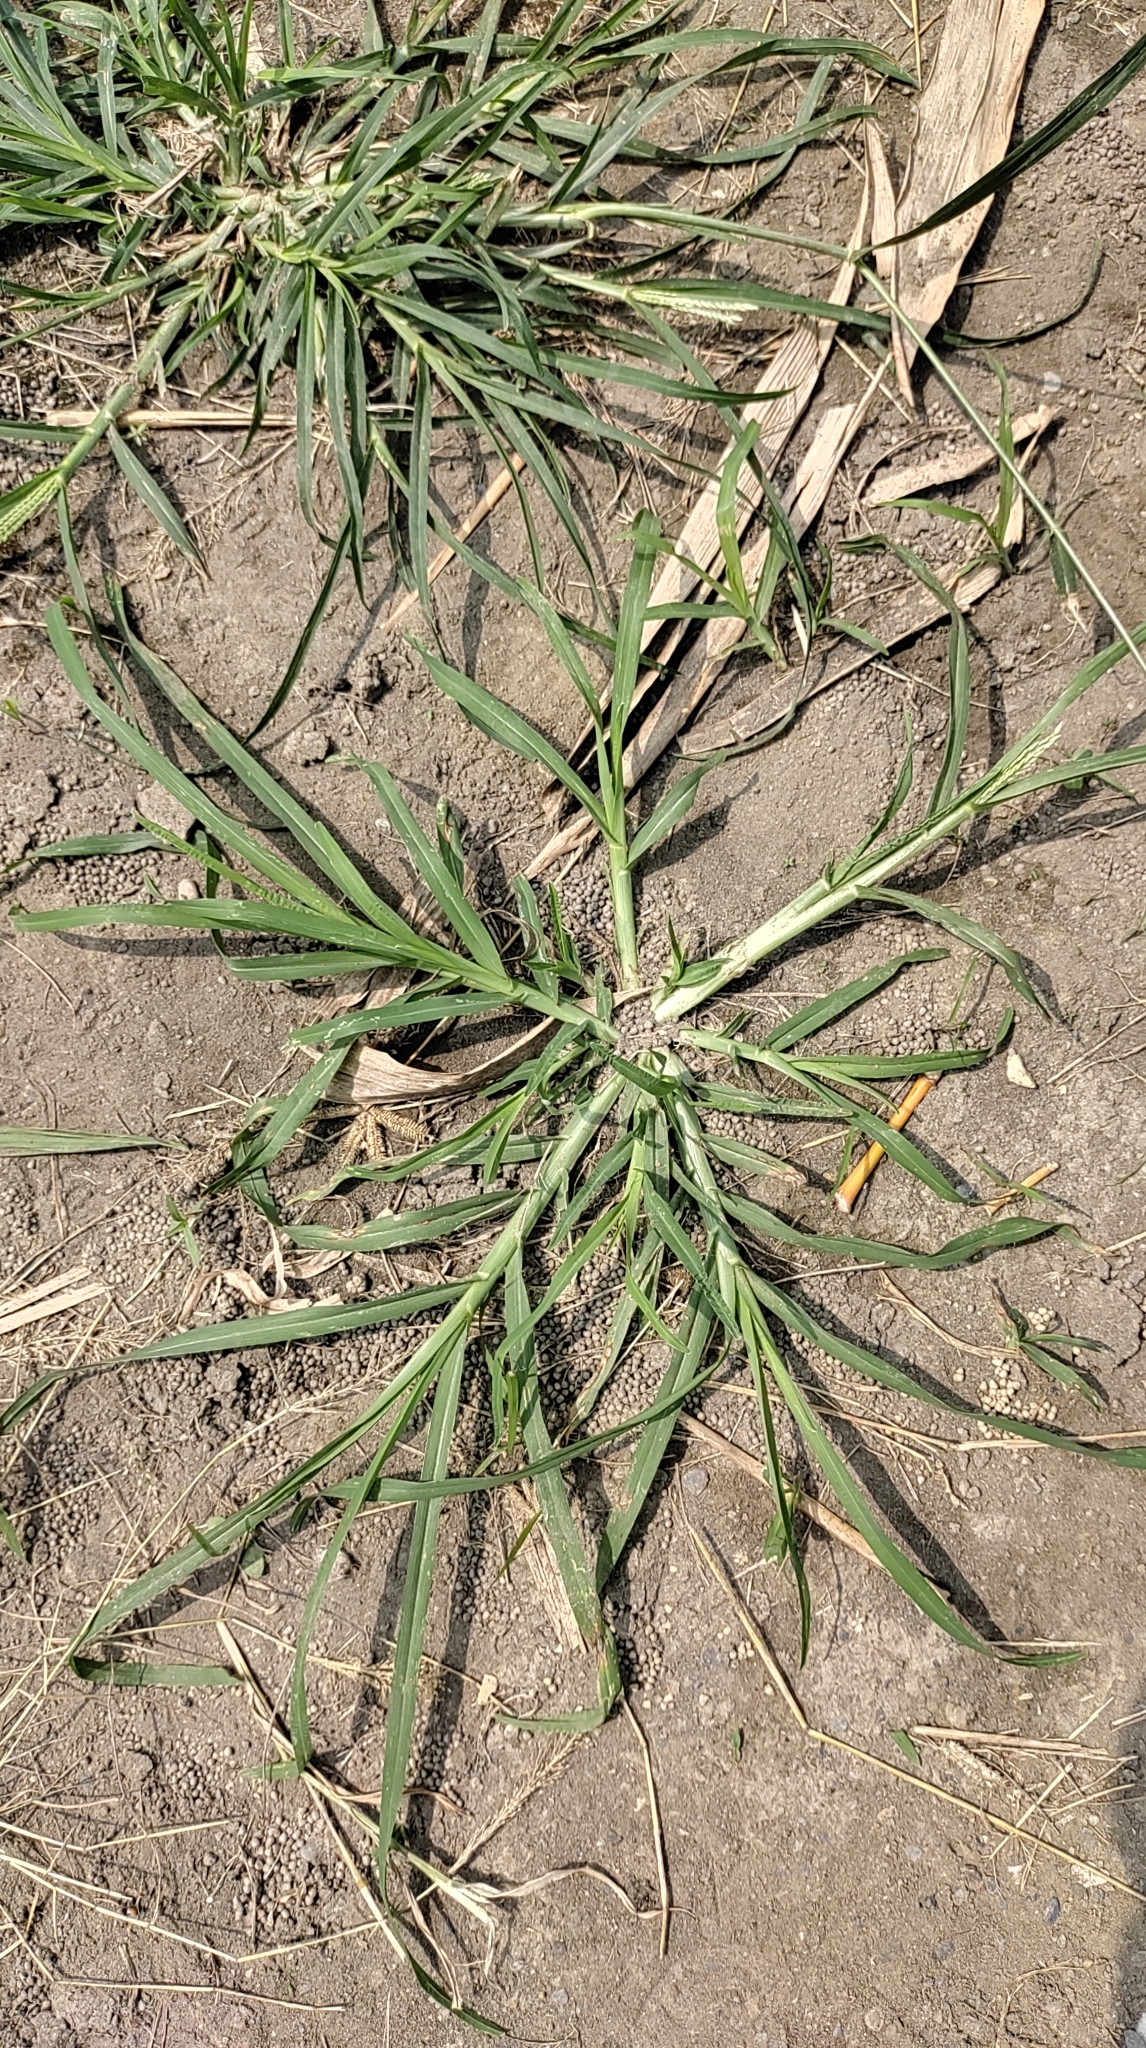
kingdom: Plantae
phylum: Tracheophyta
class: Liliopsida
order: Poales
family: Poaceae
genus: Eleusine
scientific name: Eleusine indica
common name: Yard-grass
